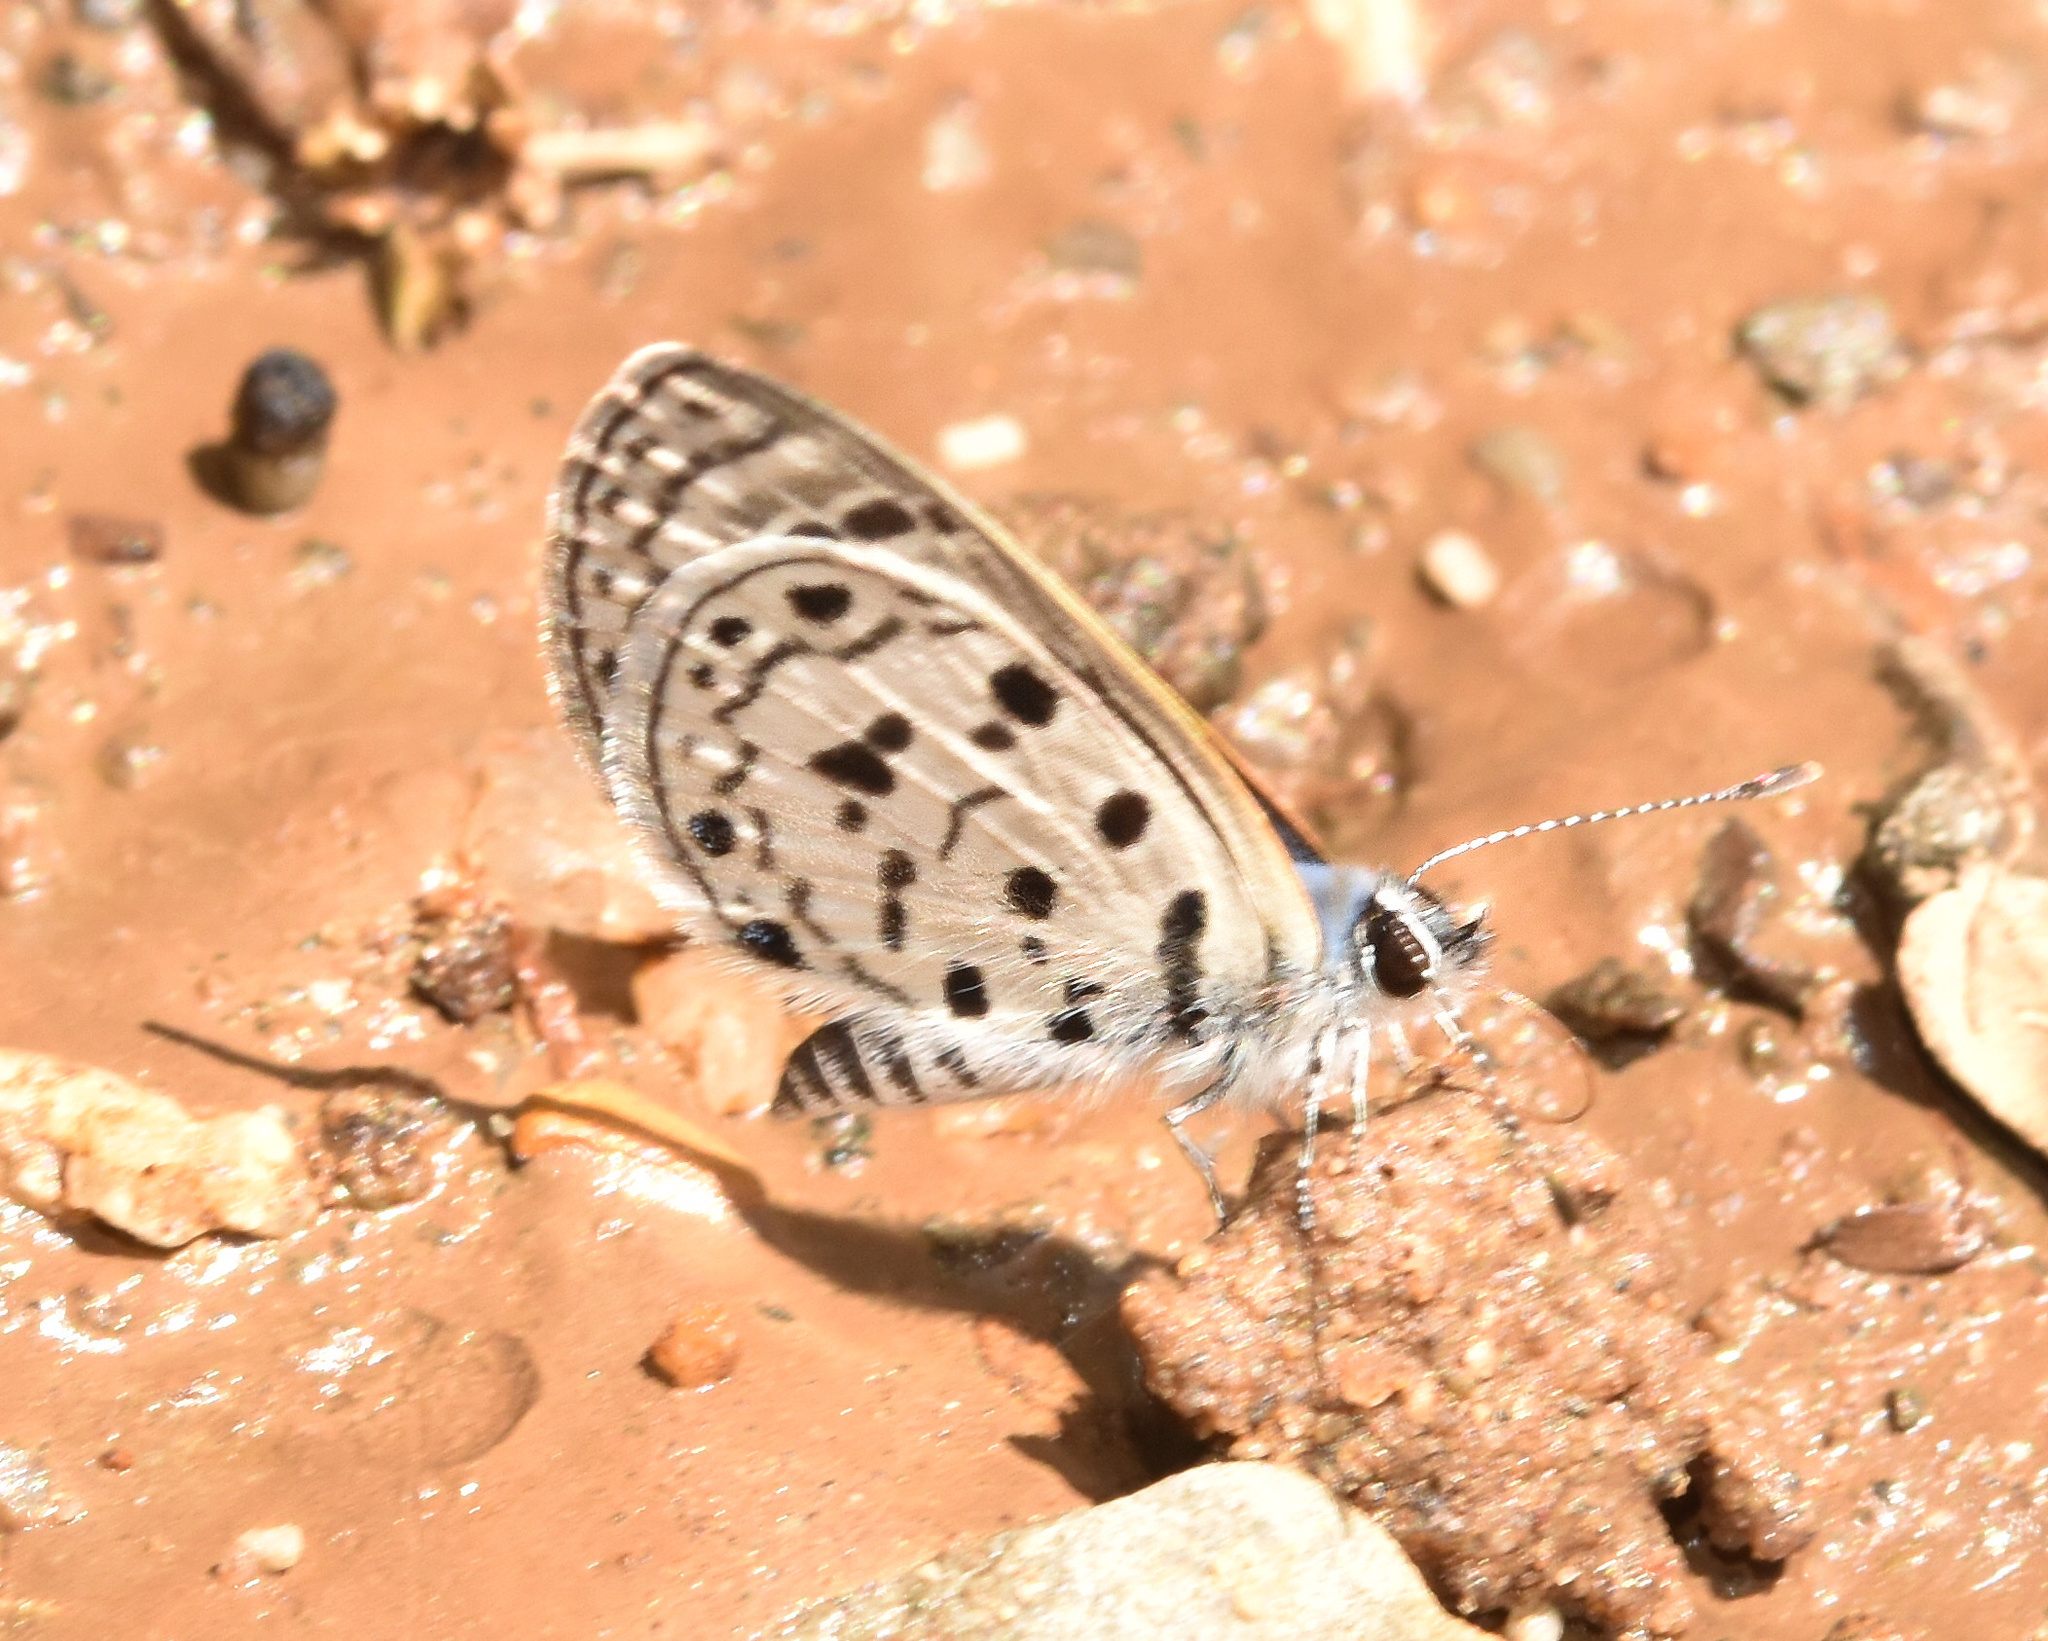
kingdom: Animalia
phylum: Arthropoda
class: Insecta
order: Lepidoptera
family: Lycaenidae
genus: Azanus
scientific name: Azanus moriqua
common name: Thorn-tree babul blue
